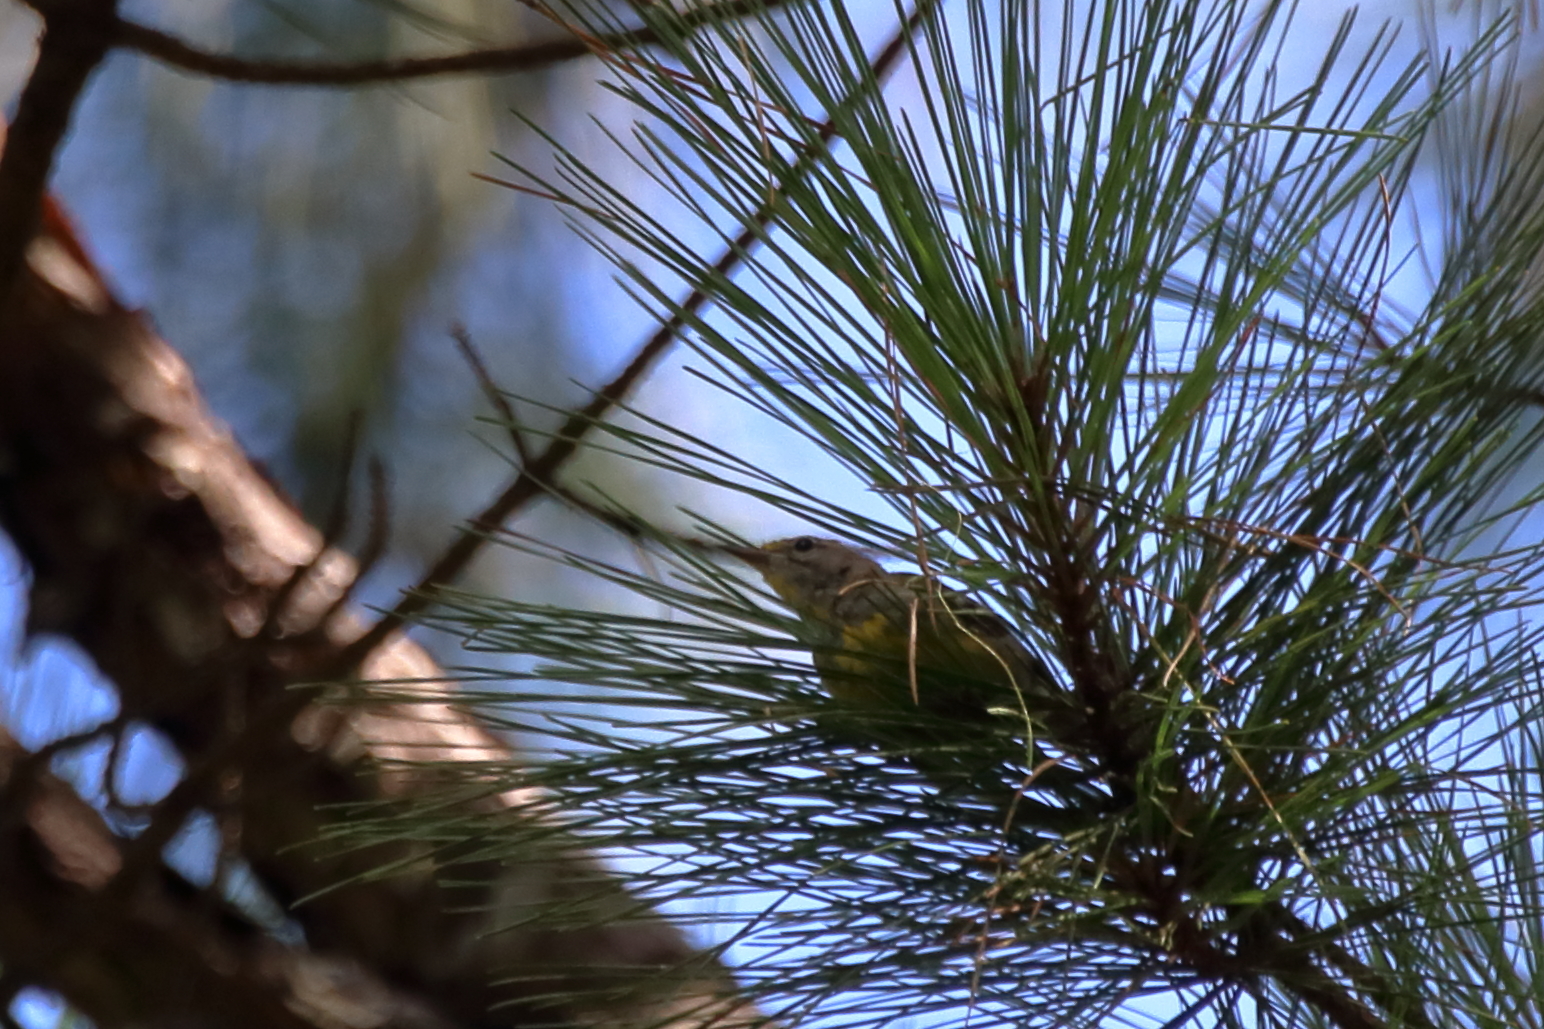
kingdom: Animalia
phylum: Chordata
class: Aves
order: Passeriformes
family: Parulidae
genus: Setophaga
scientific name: Setophaga pinus
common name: Pine warbler
